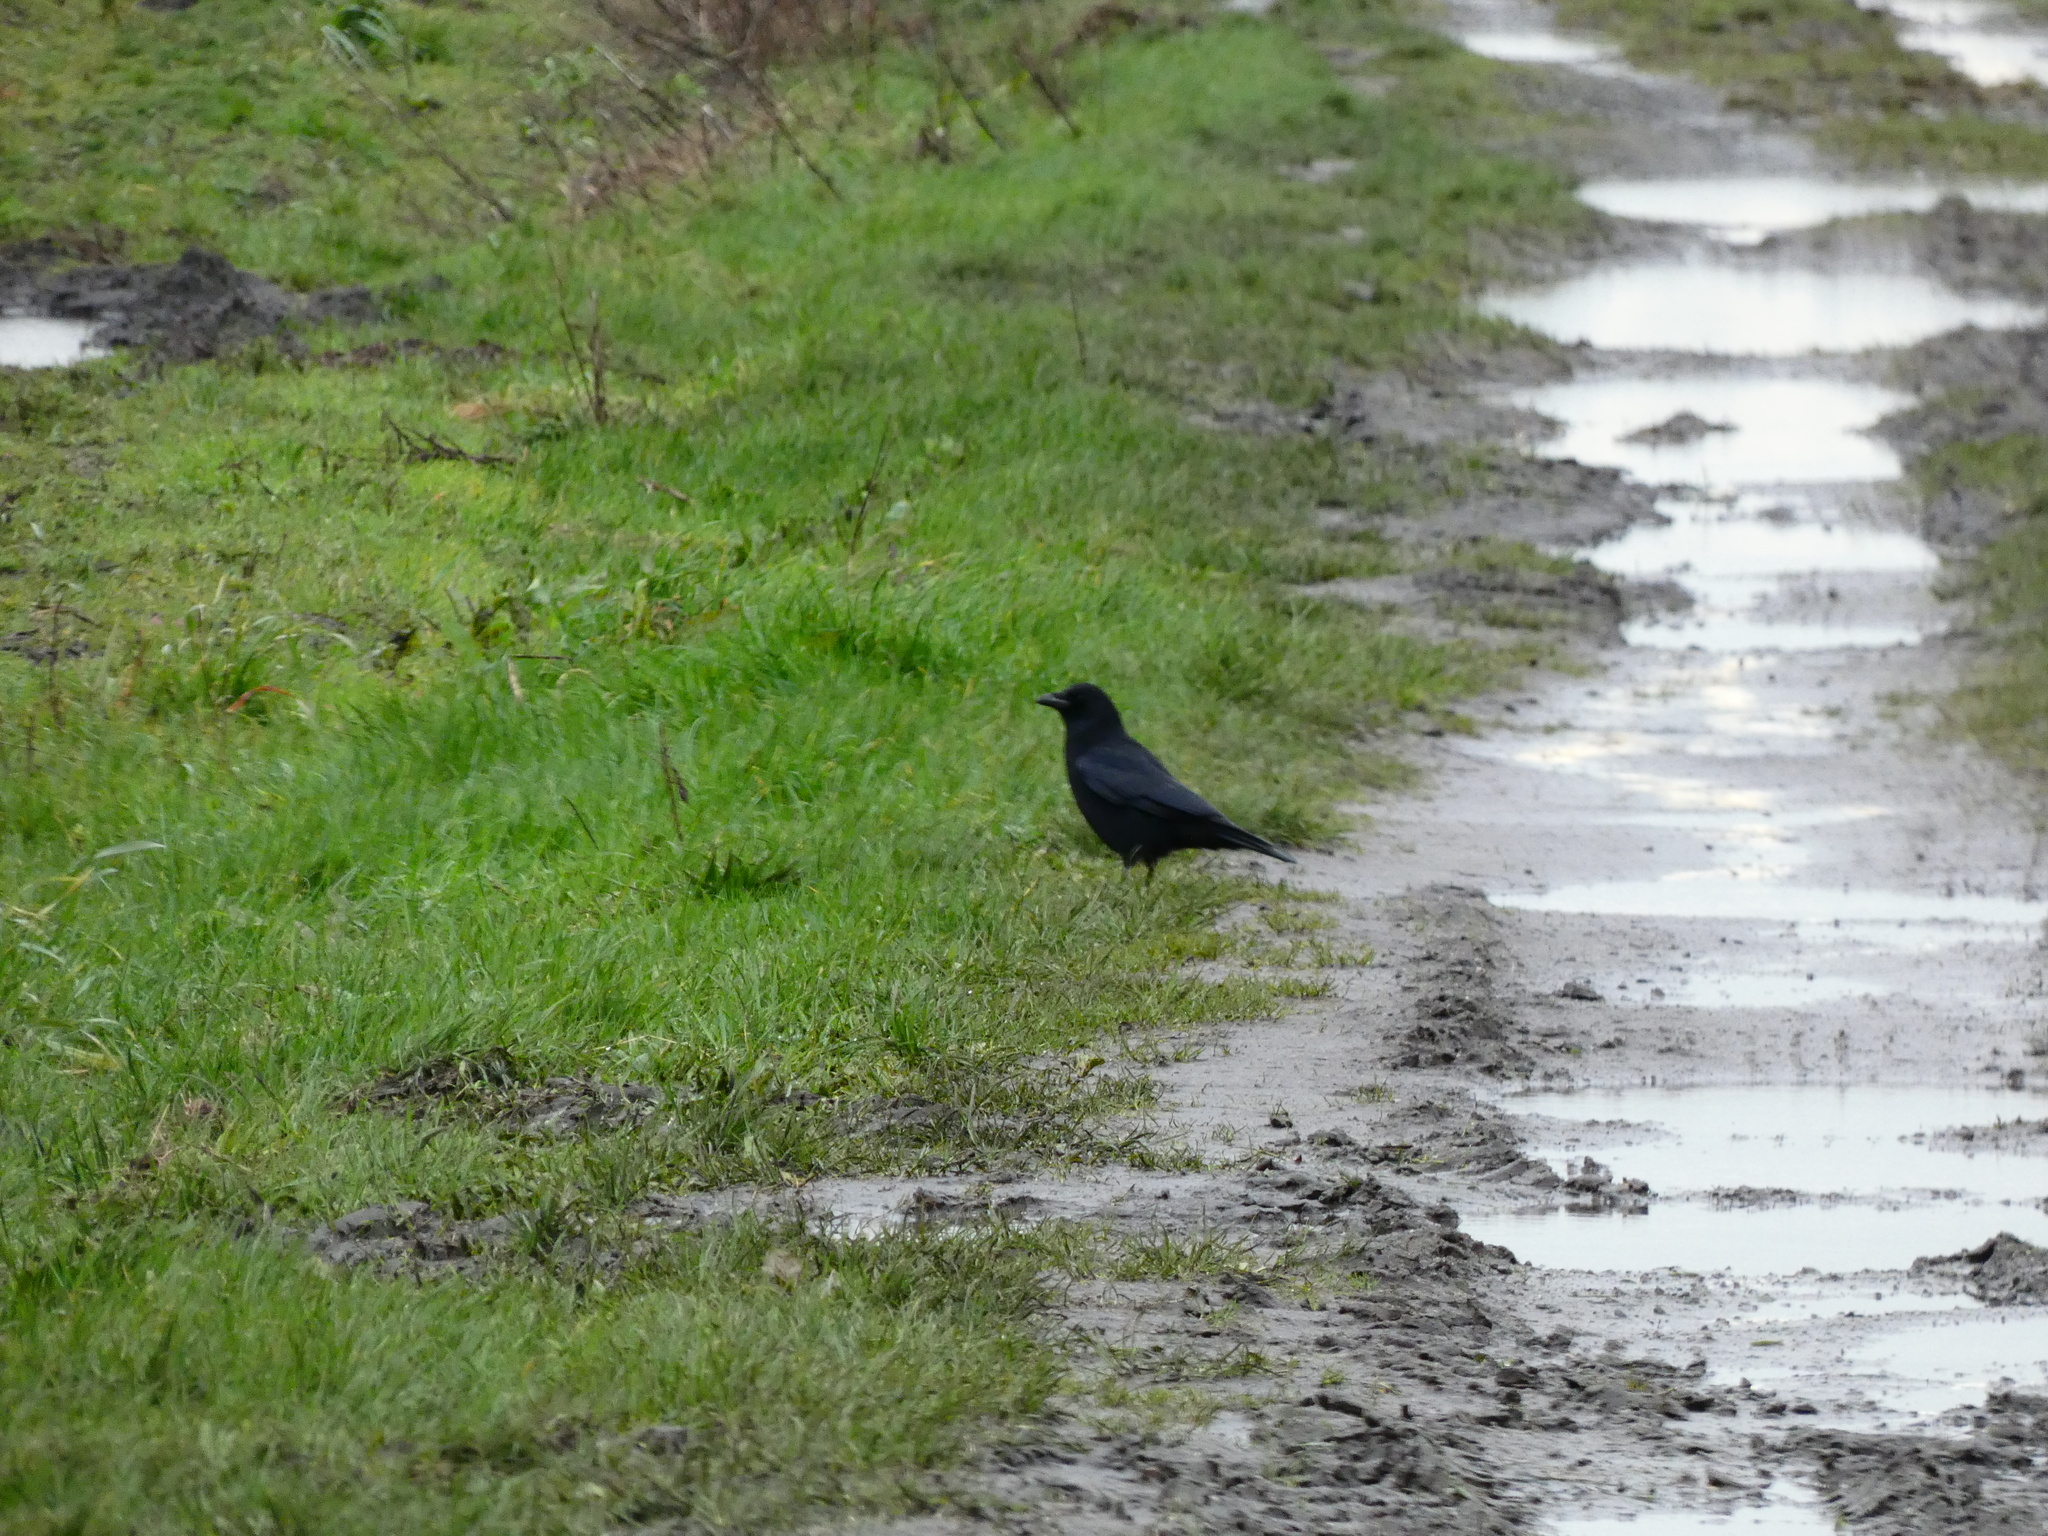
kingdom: Animalia
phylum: Chordata
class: Aves
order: Passeriformes
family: Corvidae
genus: Corvus
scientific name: Corvus corone
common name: Carrion crow
